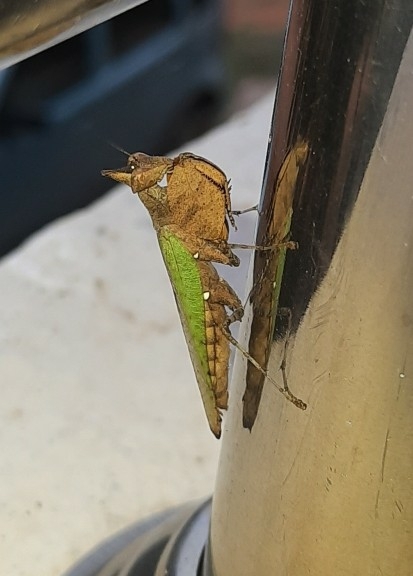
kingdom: Animalia
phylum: Arthropoda
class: Insecta
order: Mantodea
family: Hymenopodidae
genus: Hestiasula
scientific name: Hestiasula brunneriana
